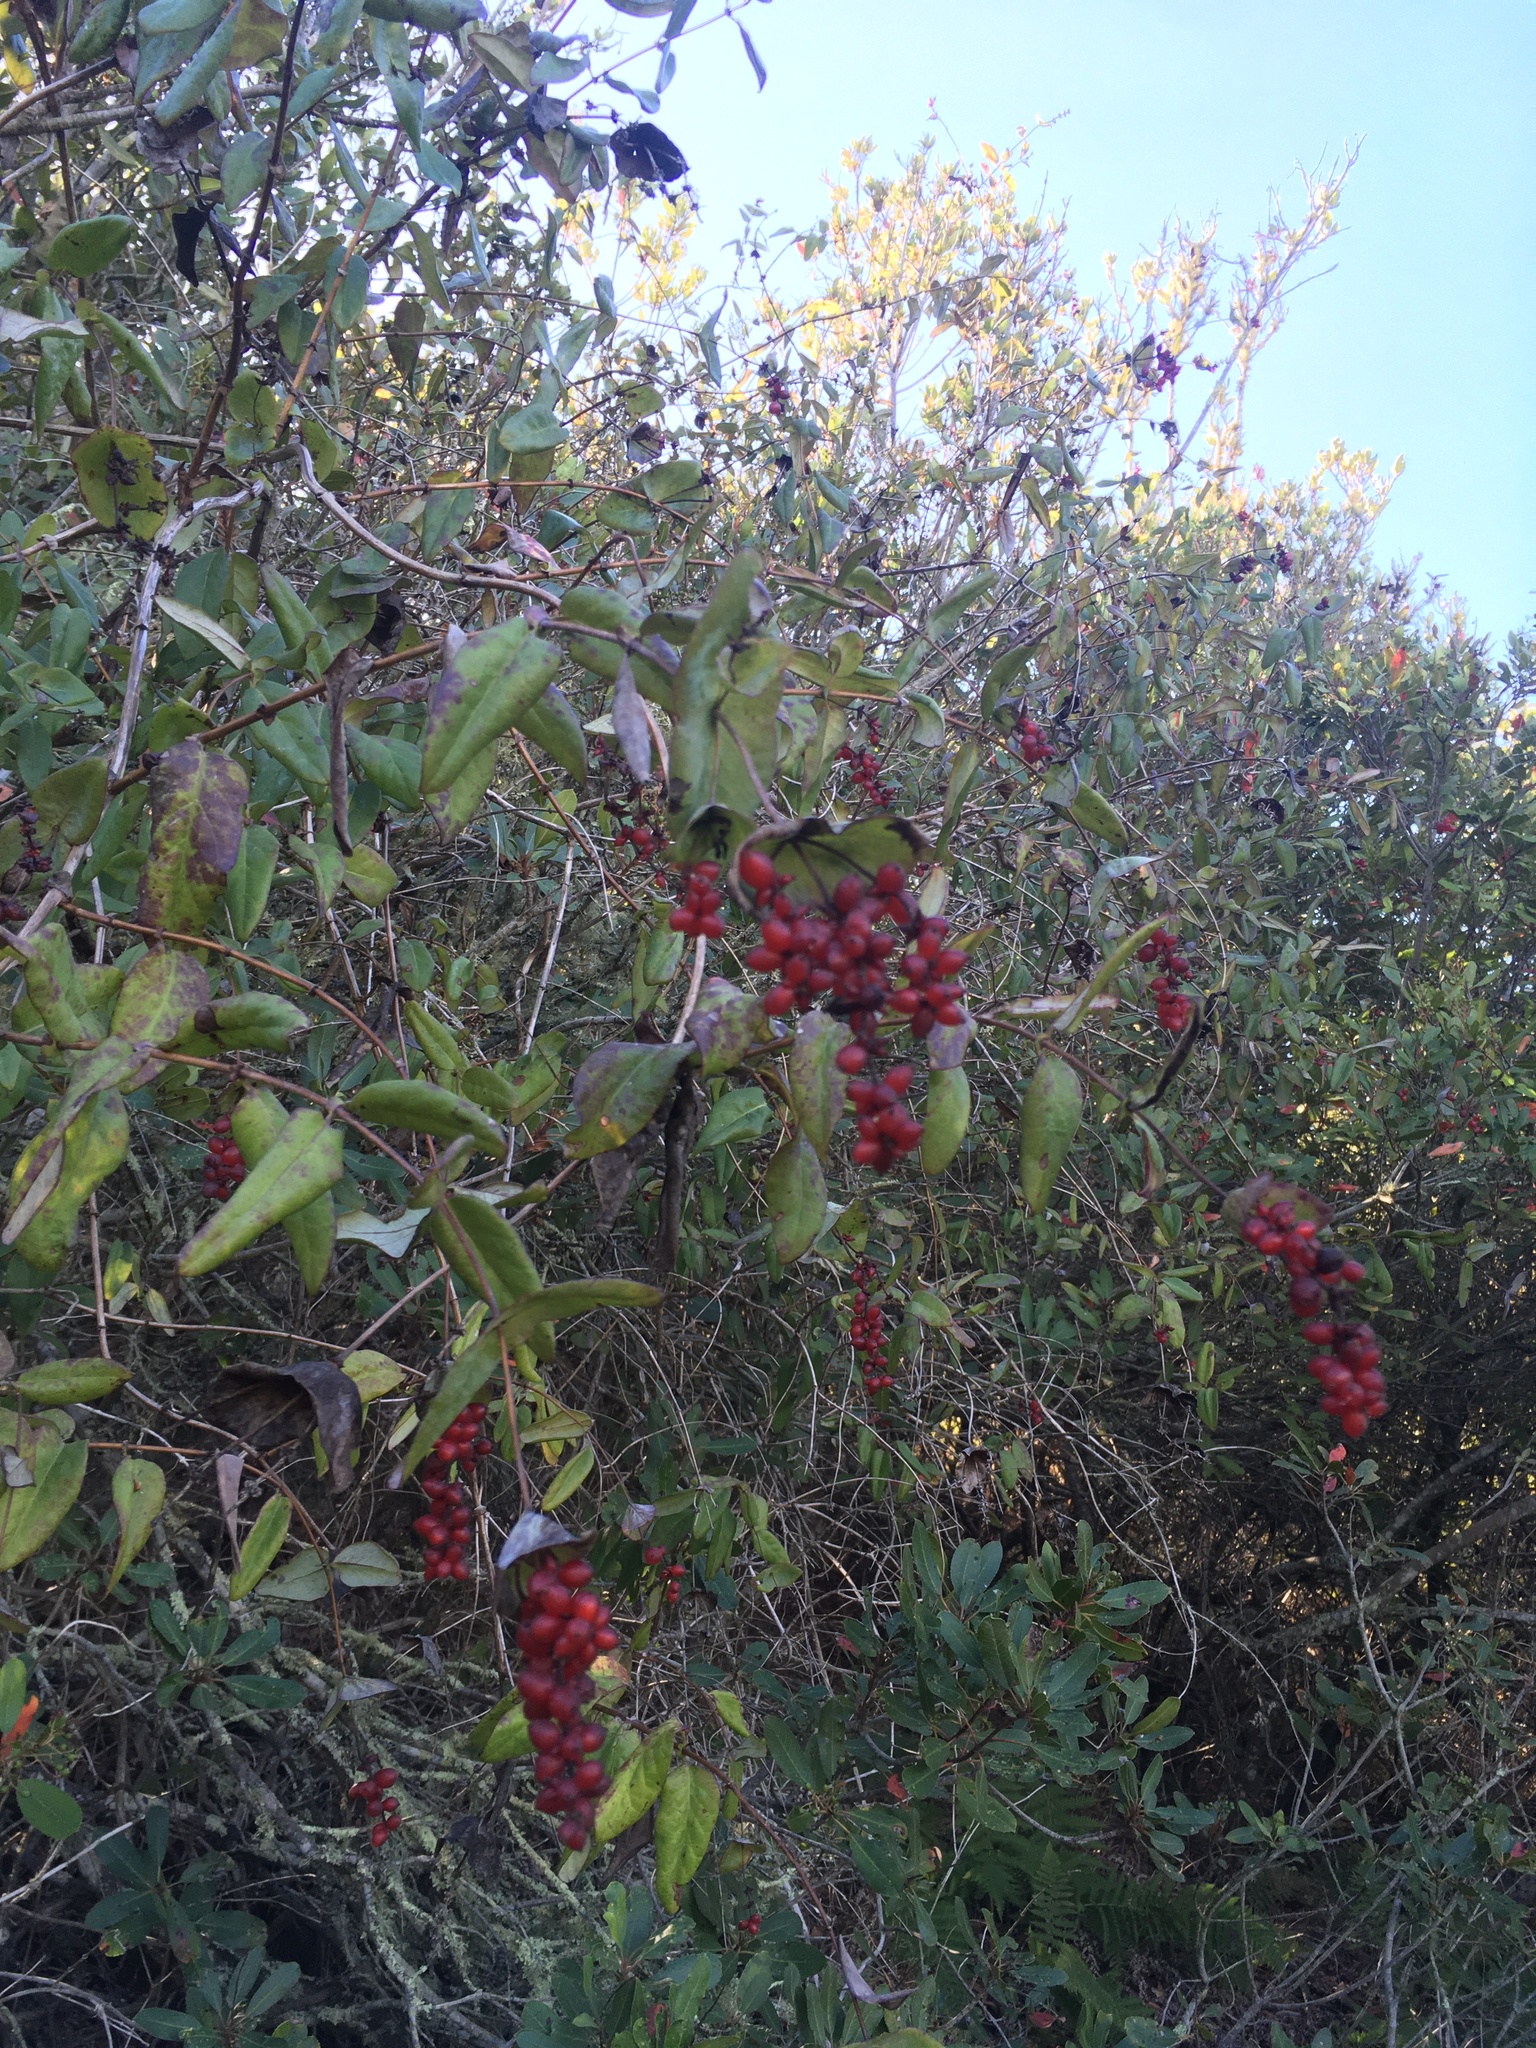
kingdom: Plantae
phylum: Tracheophyta
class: Magnoliopsida
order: Dipsacales
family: Caprifoliaceae
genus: Lonicera
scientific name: Lonicera hispidula
